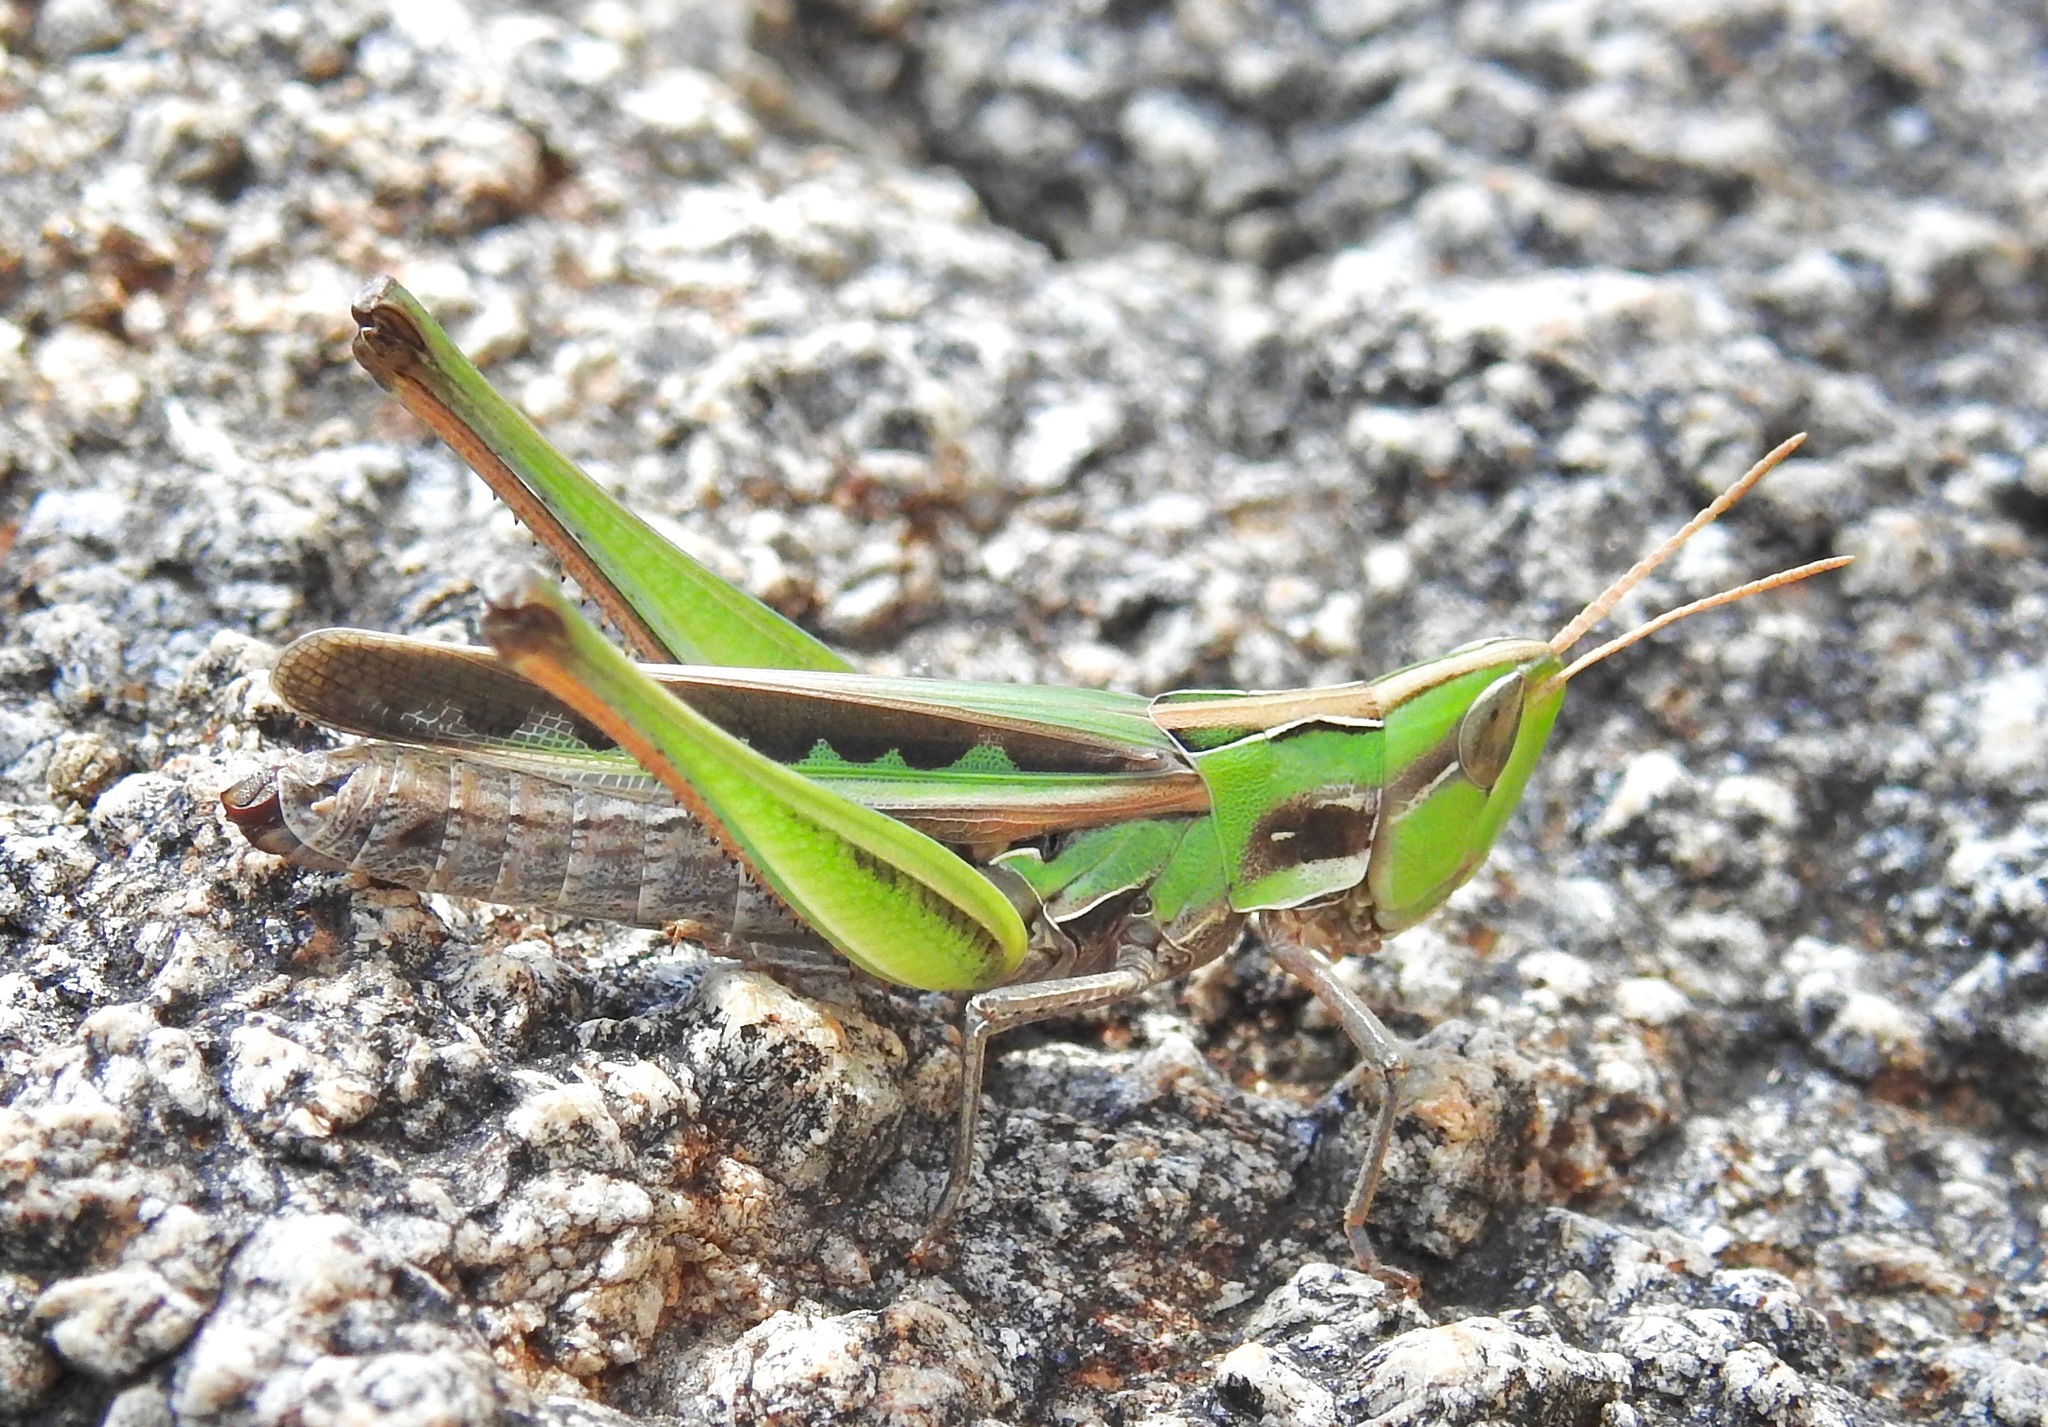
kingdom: Animalia
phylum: Arthropoda
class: Insecta
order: Orthoptera
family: Acrididae
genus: Syrbula
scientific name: Syrbula montezuma
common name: Montezuma's grasshopper
